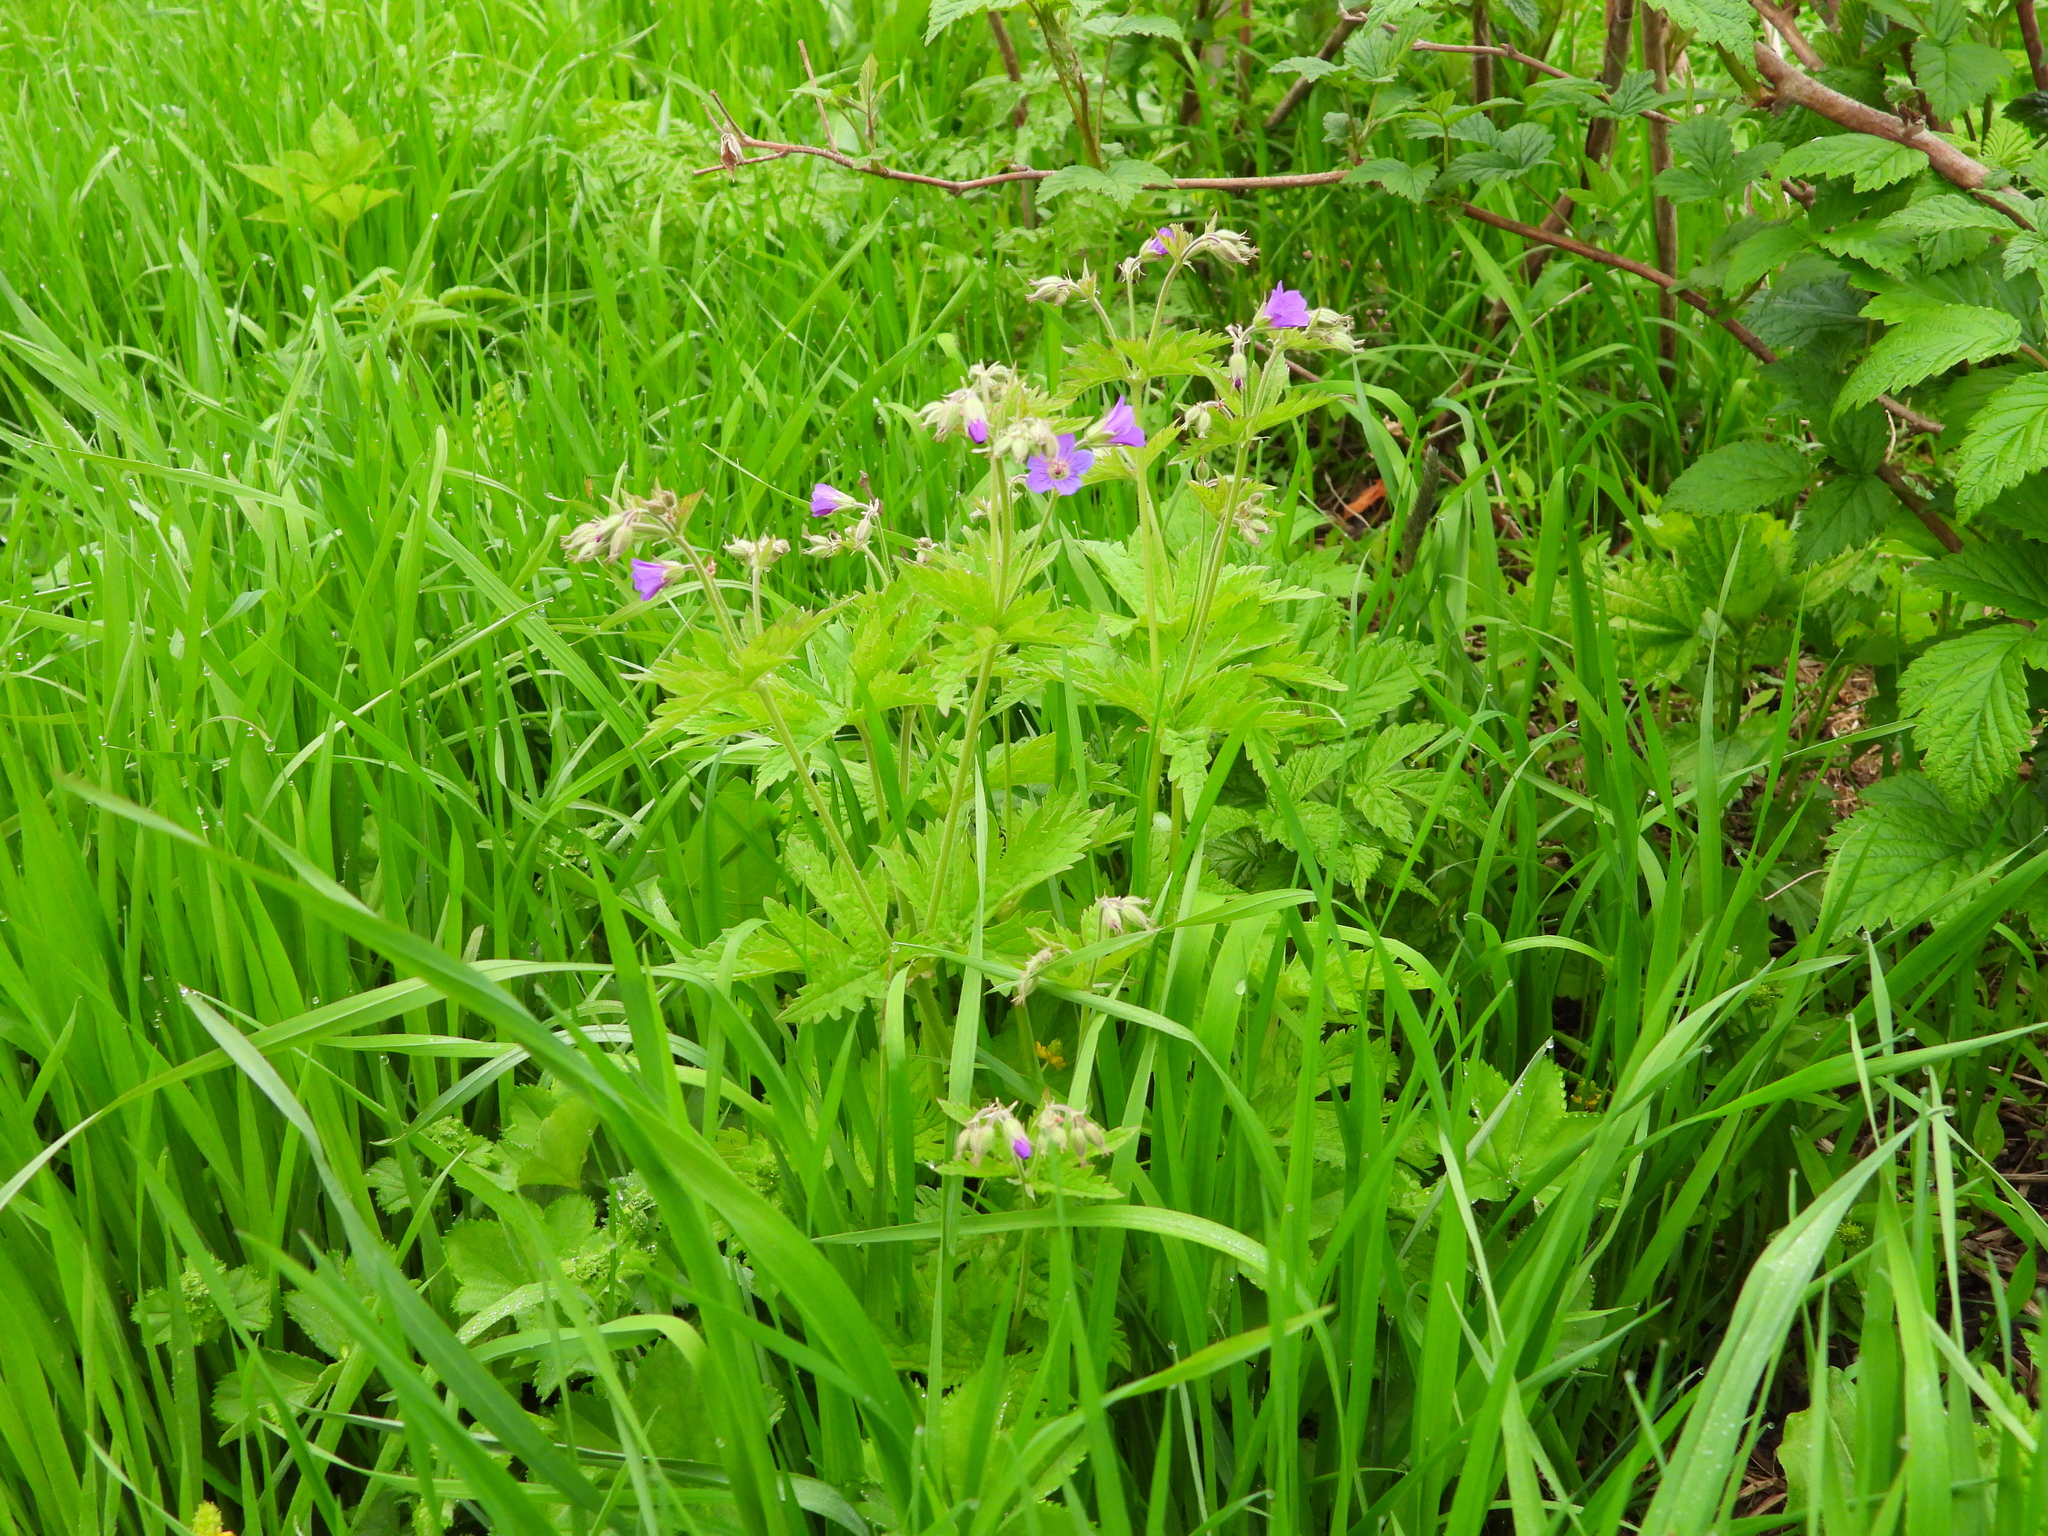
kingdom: Plantae
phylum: Tracheophyta
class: Magnoliopsida
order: Geraniales
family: Geraniaceae
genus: Geranium
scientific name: Geranium sylvaticum
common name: Wood crane's-bill
